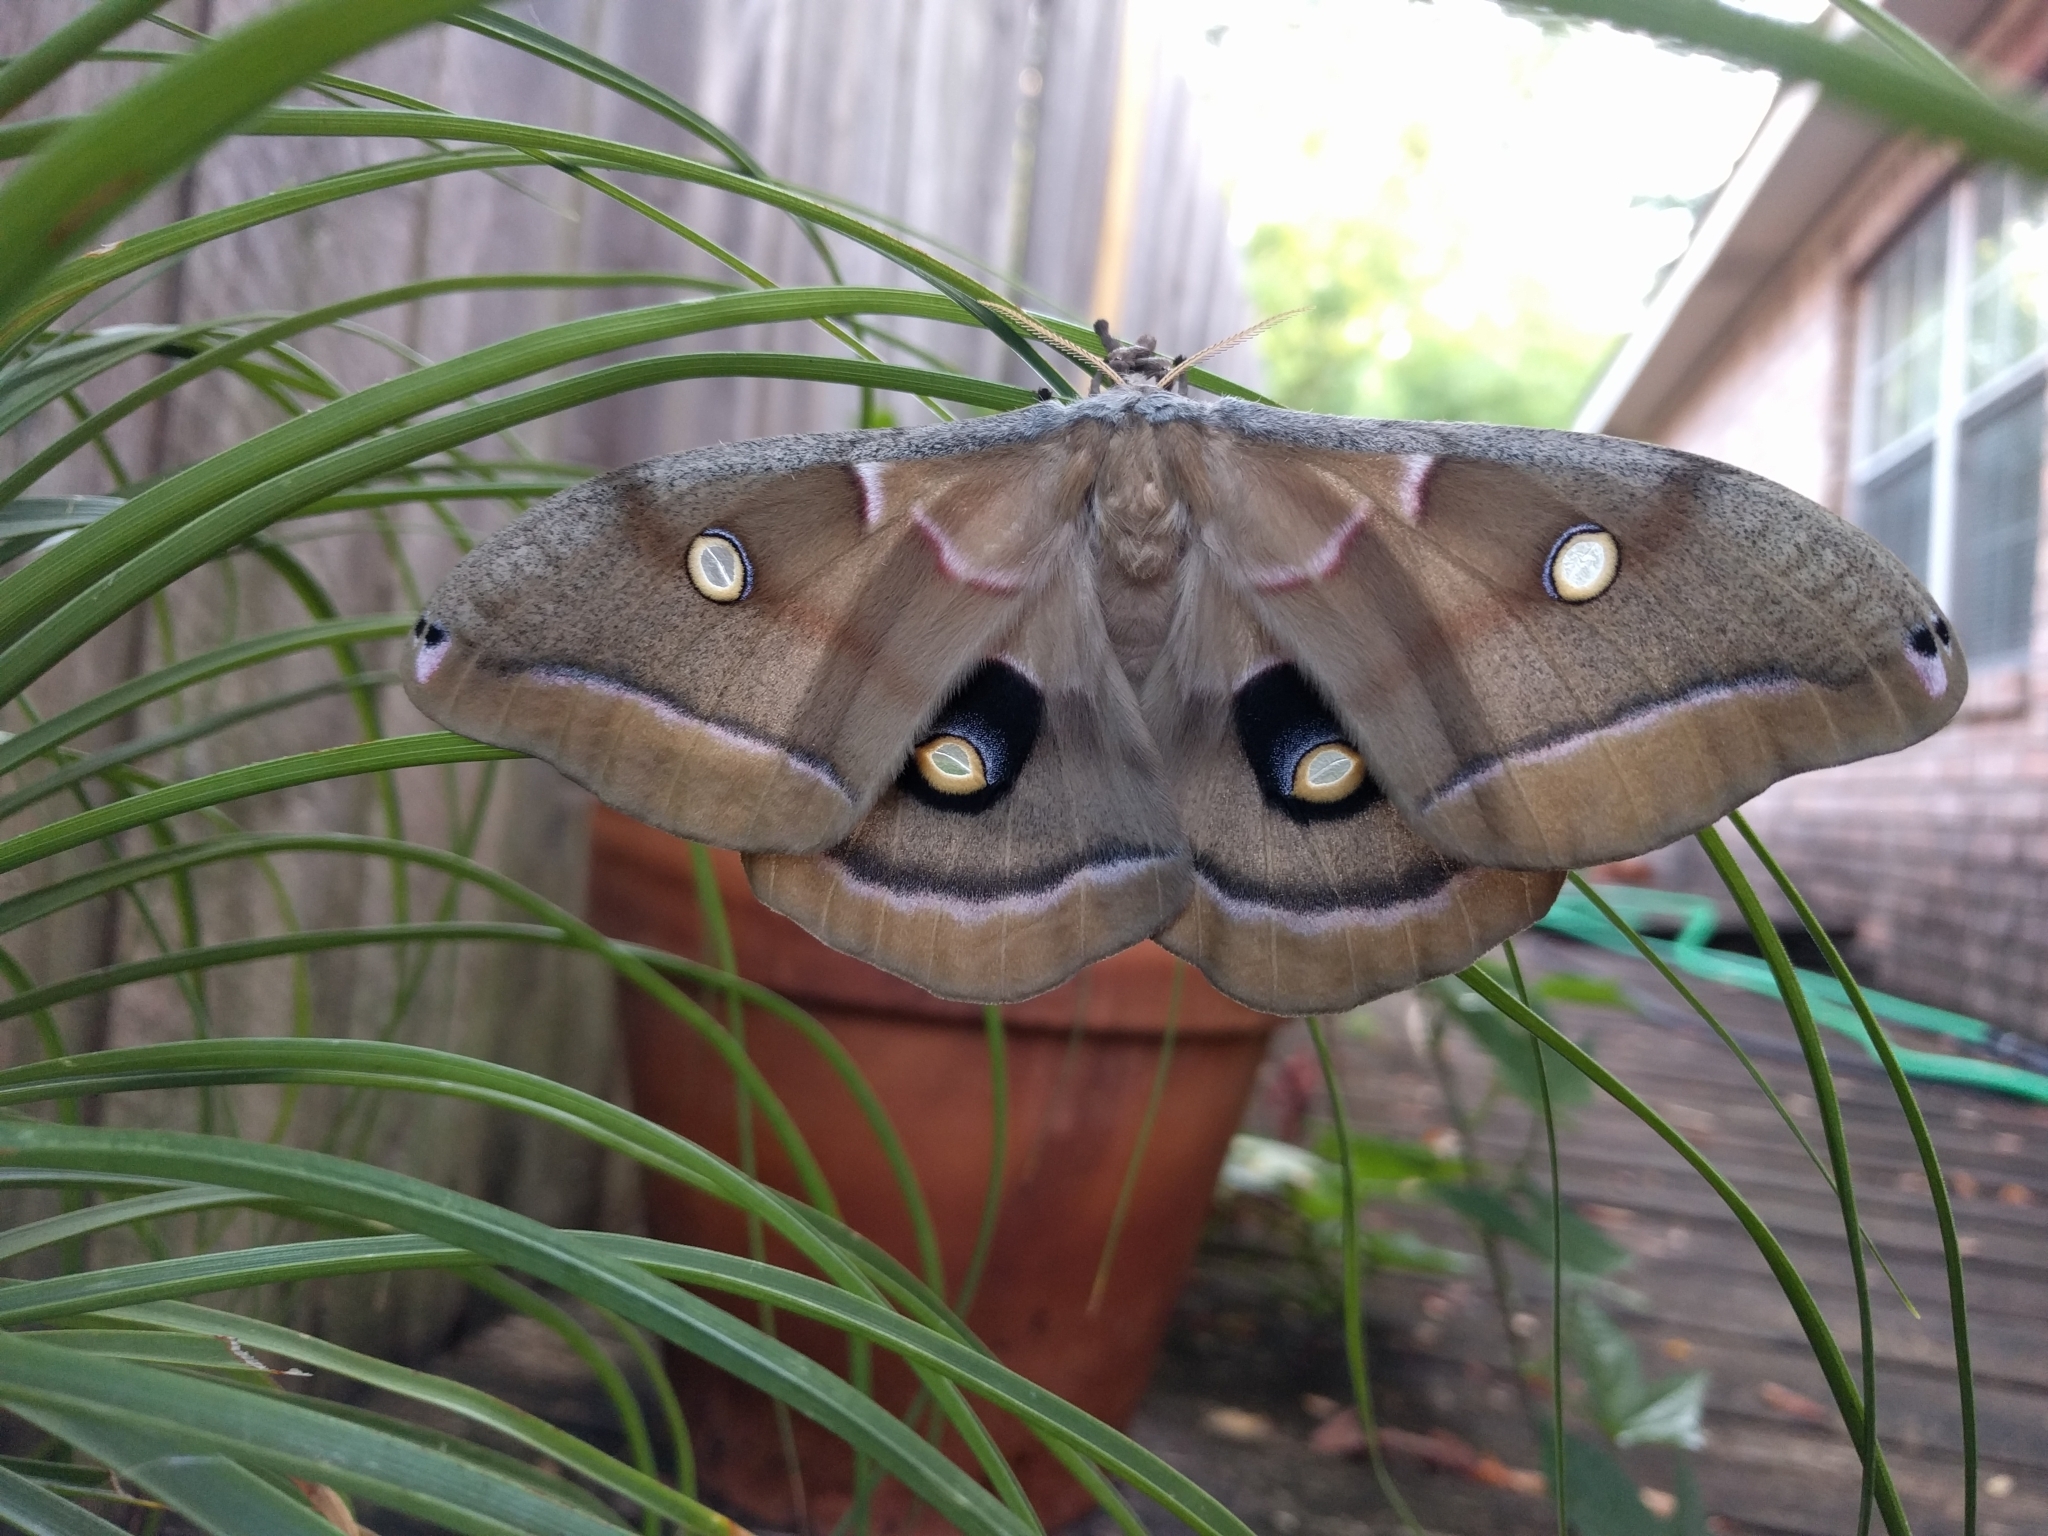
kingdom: Animalia
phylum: Arthropoda
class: Insecta
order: Lepidoptera
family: Saturniidae
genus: Antheraea
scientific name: Antheraea polyphemus
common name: Polyphemus moth
